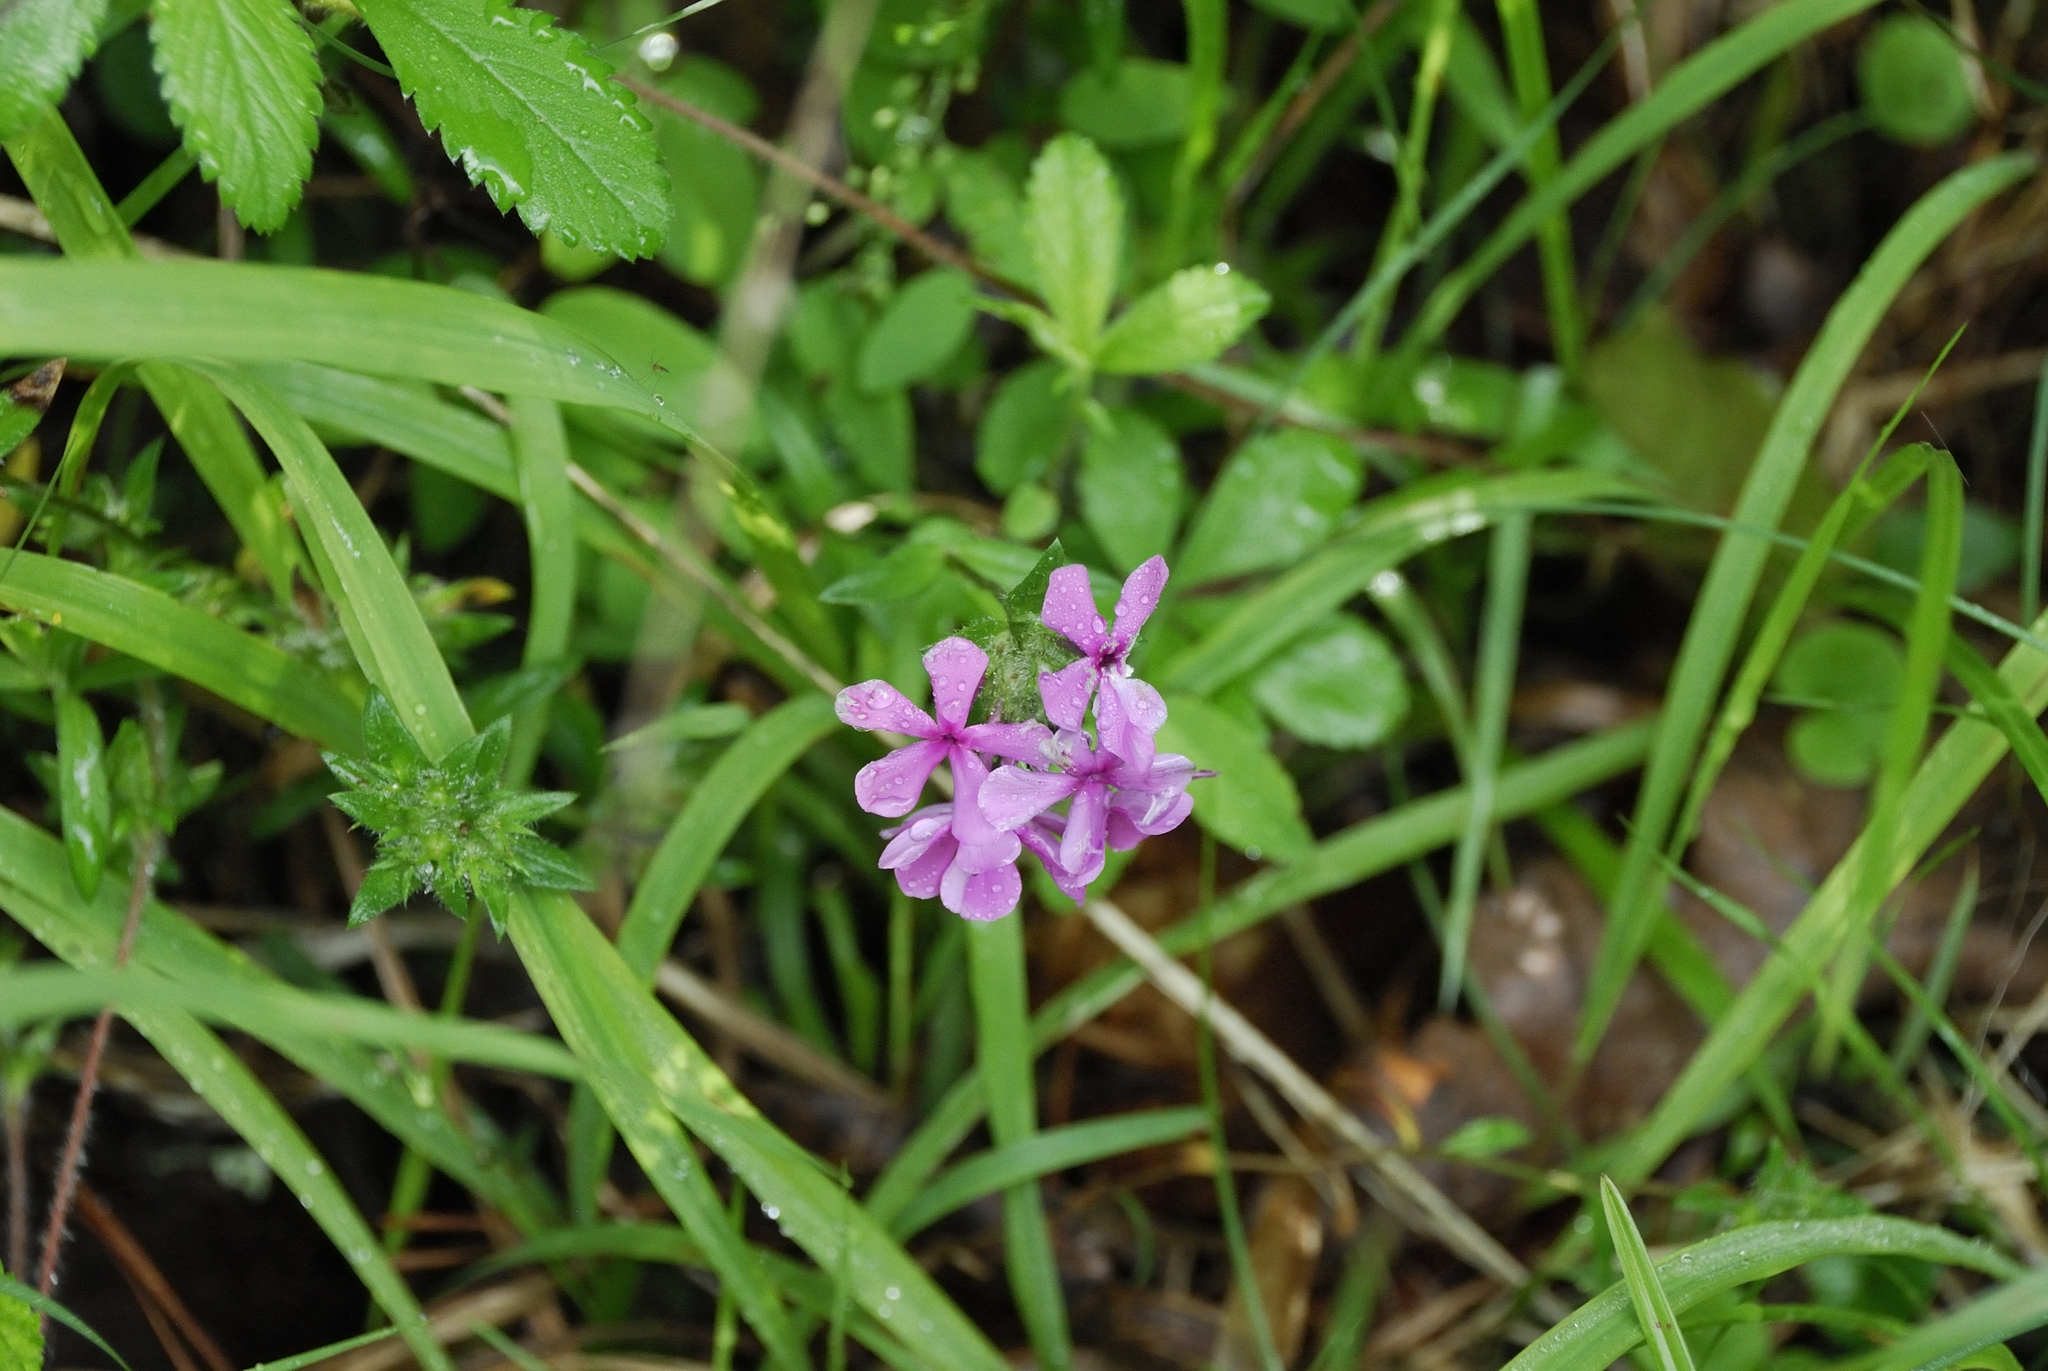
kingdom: Plantae
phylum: Tracheophyta
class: Magnoliopsida
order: Ericales
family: Polemoniaceae
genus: Phlox
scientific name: Phlox amoena
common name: Hairy phlox
